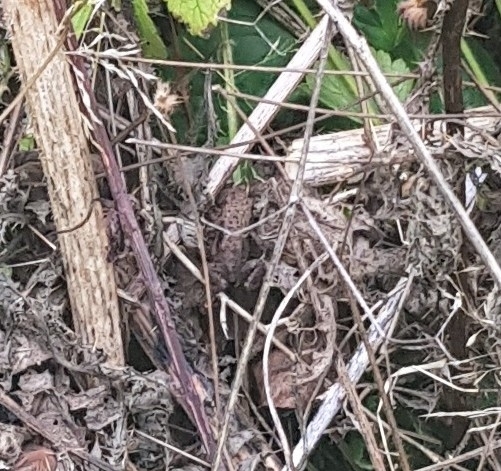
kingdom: Animalia
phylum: Chordata
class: Amphibia
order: Anura
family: Bufonidae
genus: Bufo
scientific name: Bufo bufo
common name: Common toad
